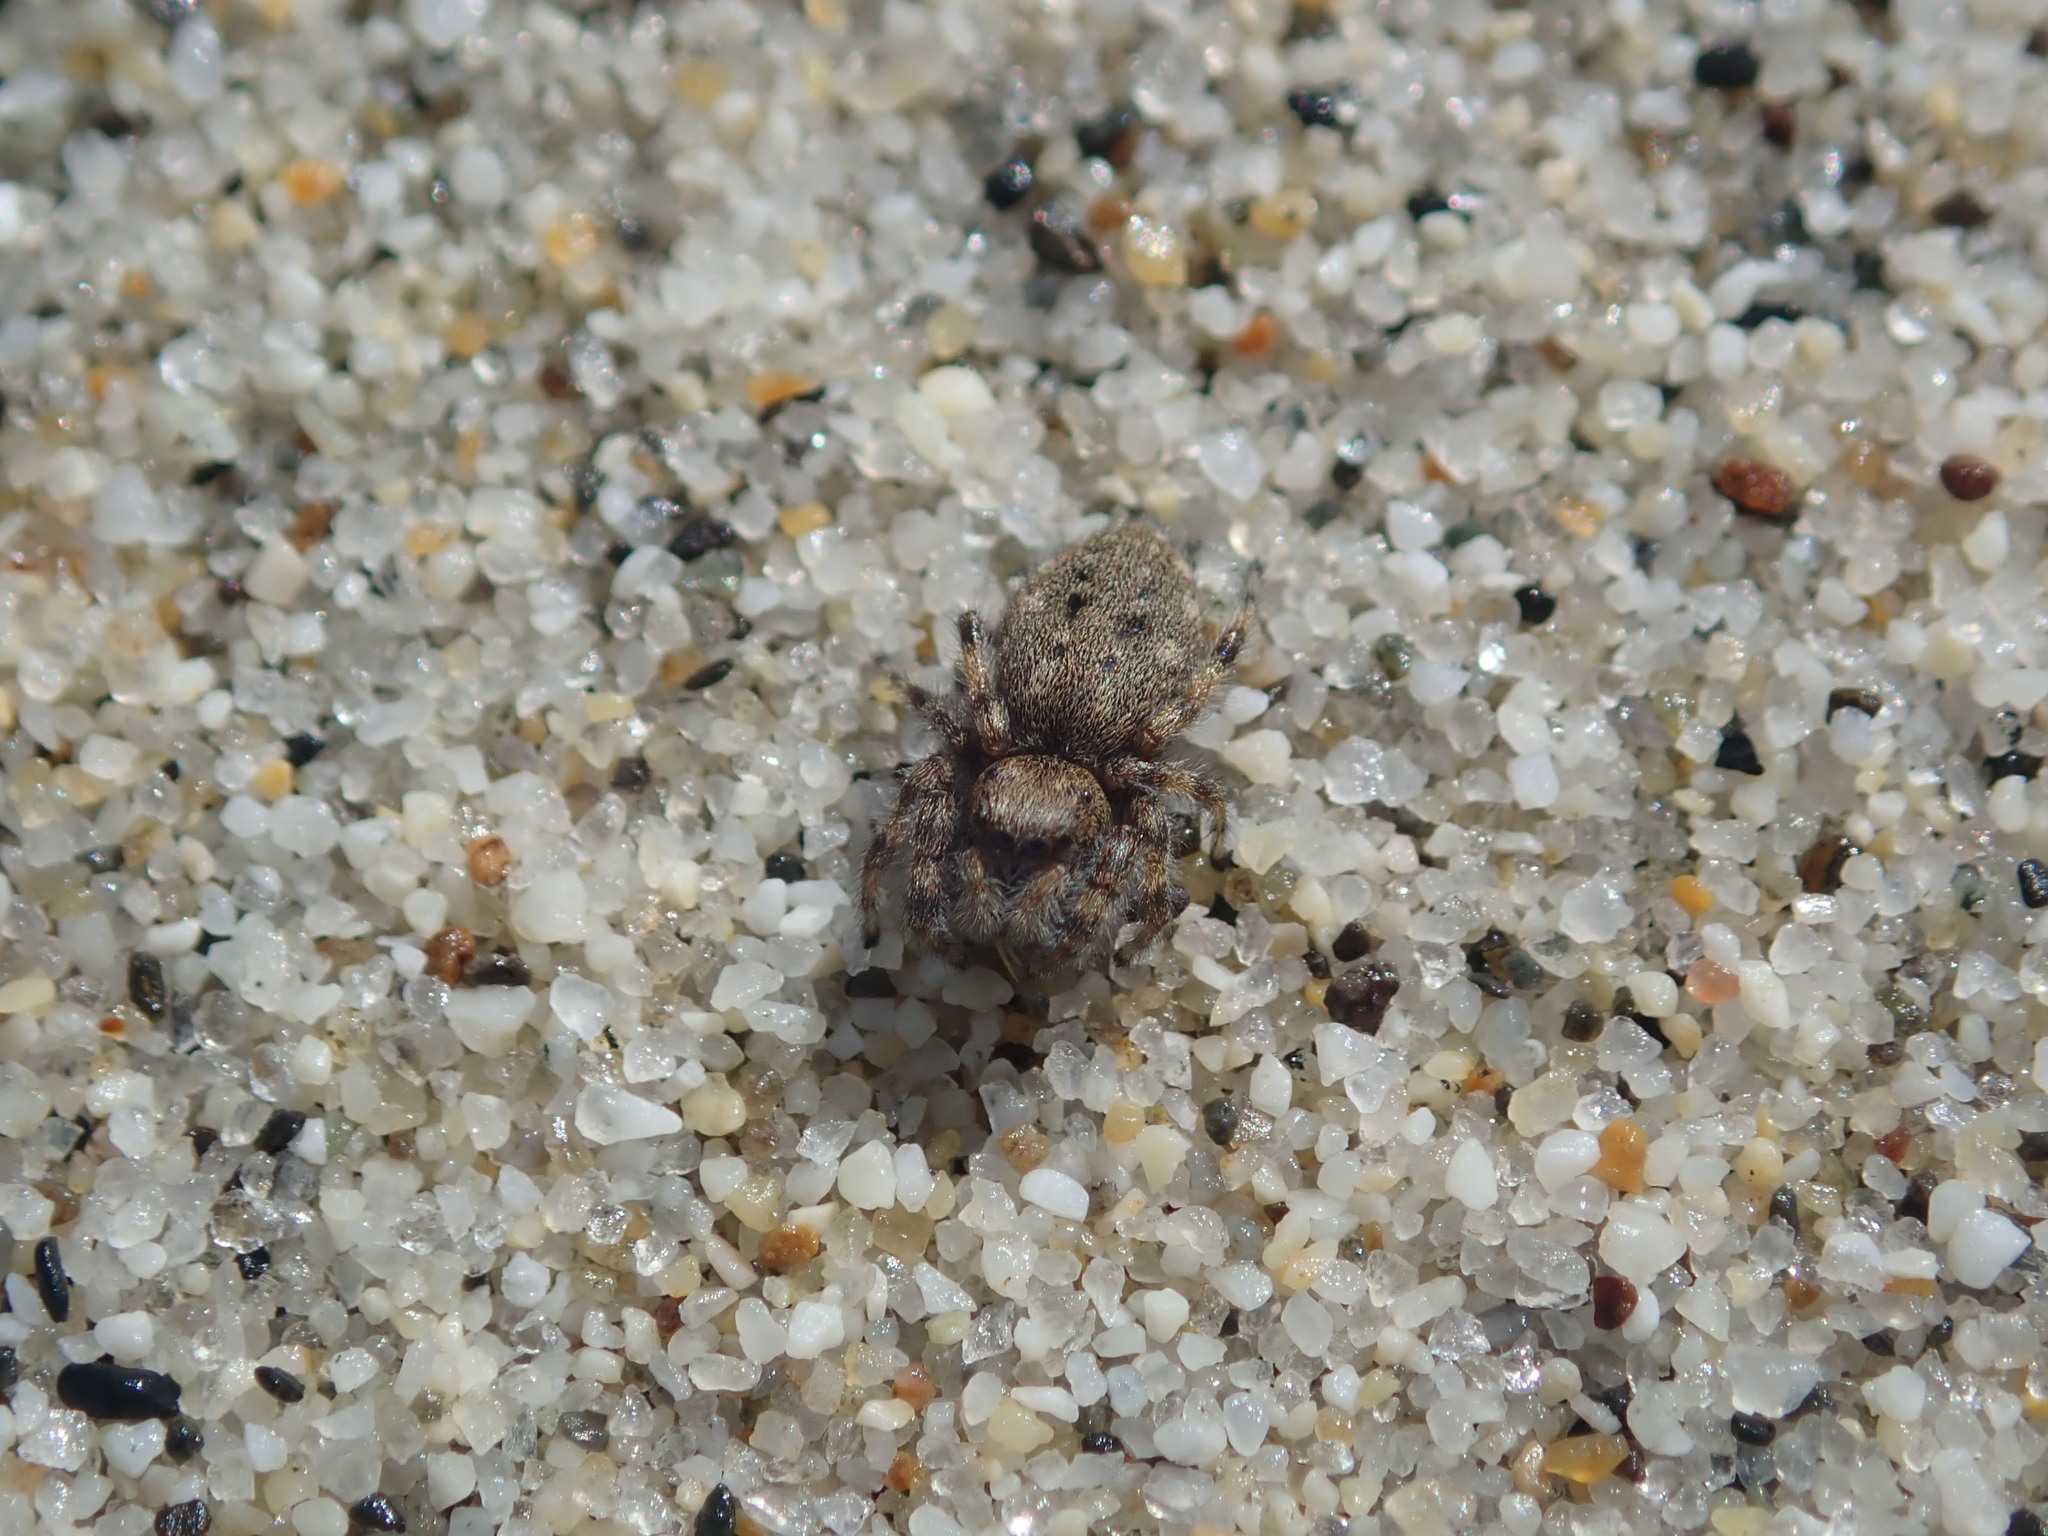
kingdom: Animalia
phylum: Arthropoda
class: Arachnida
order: Araneae
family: Salticidae
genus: Terralonus
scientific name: Terralonus californicus
